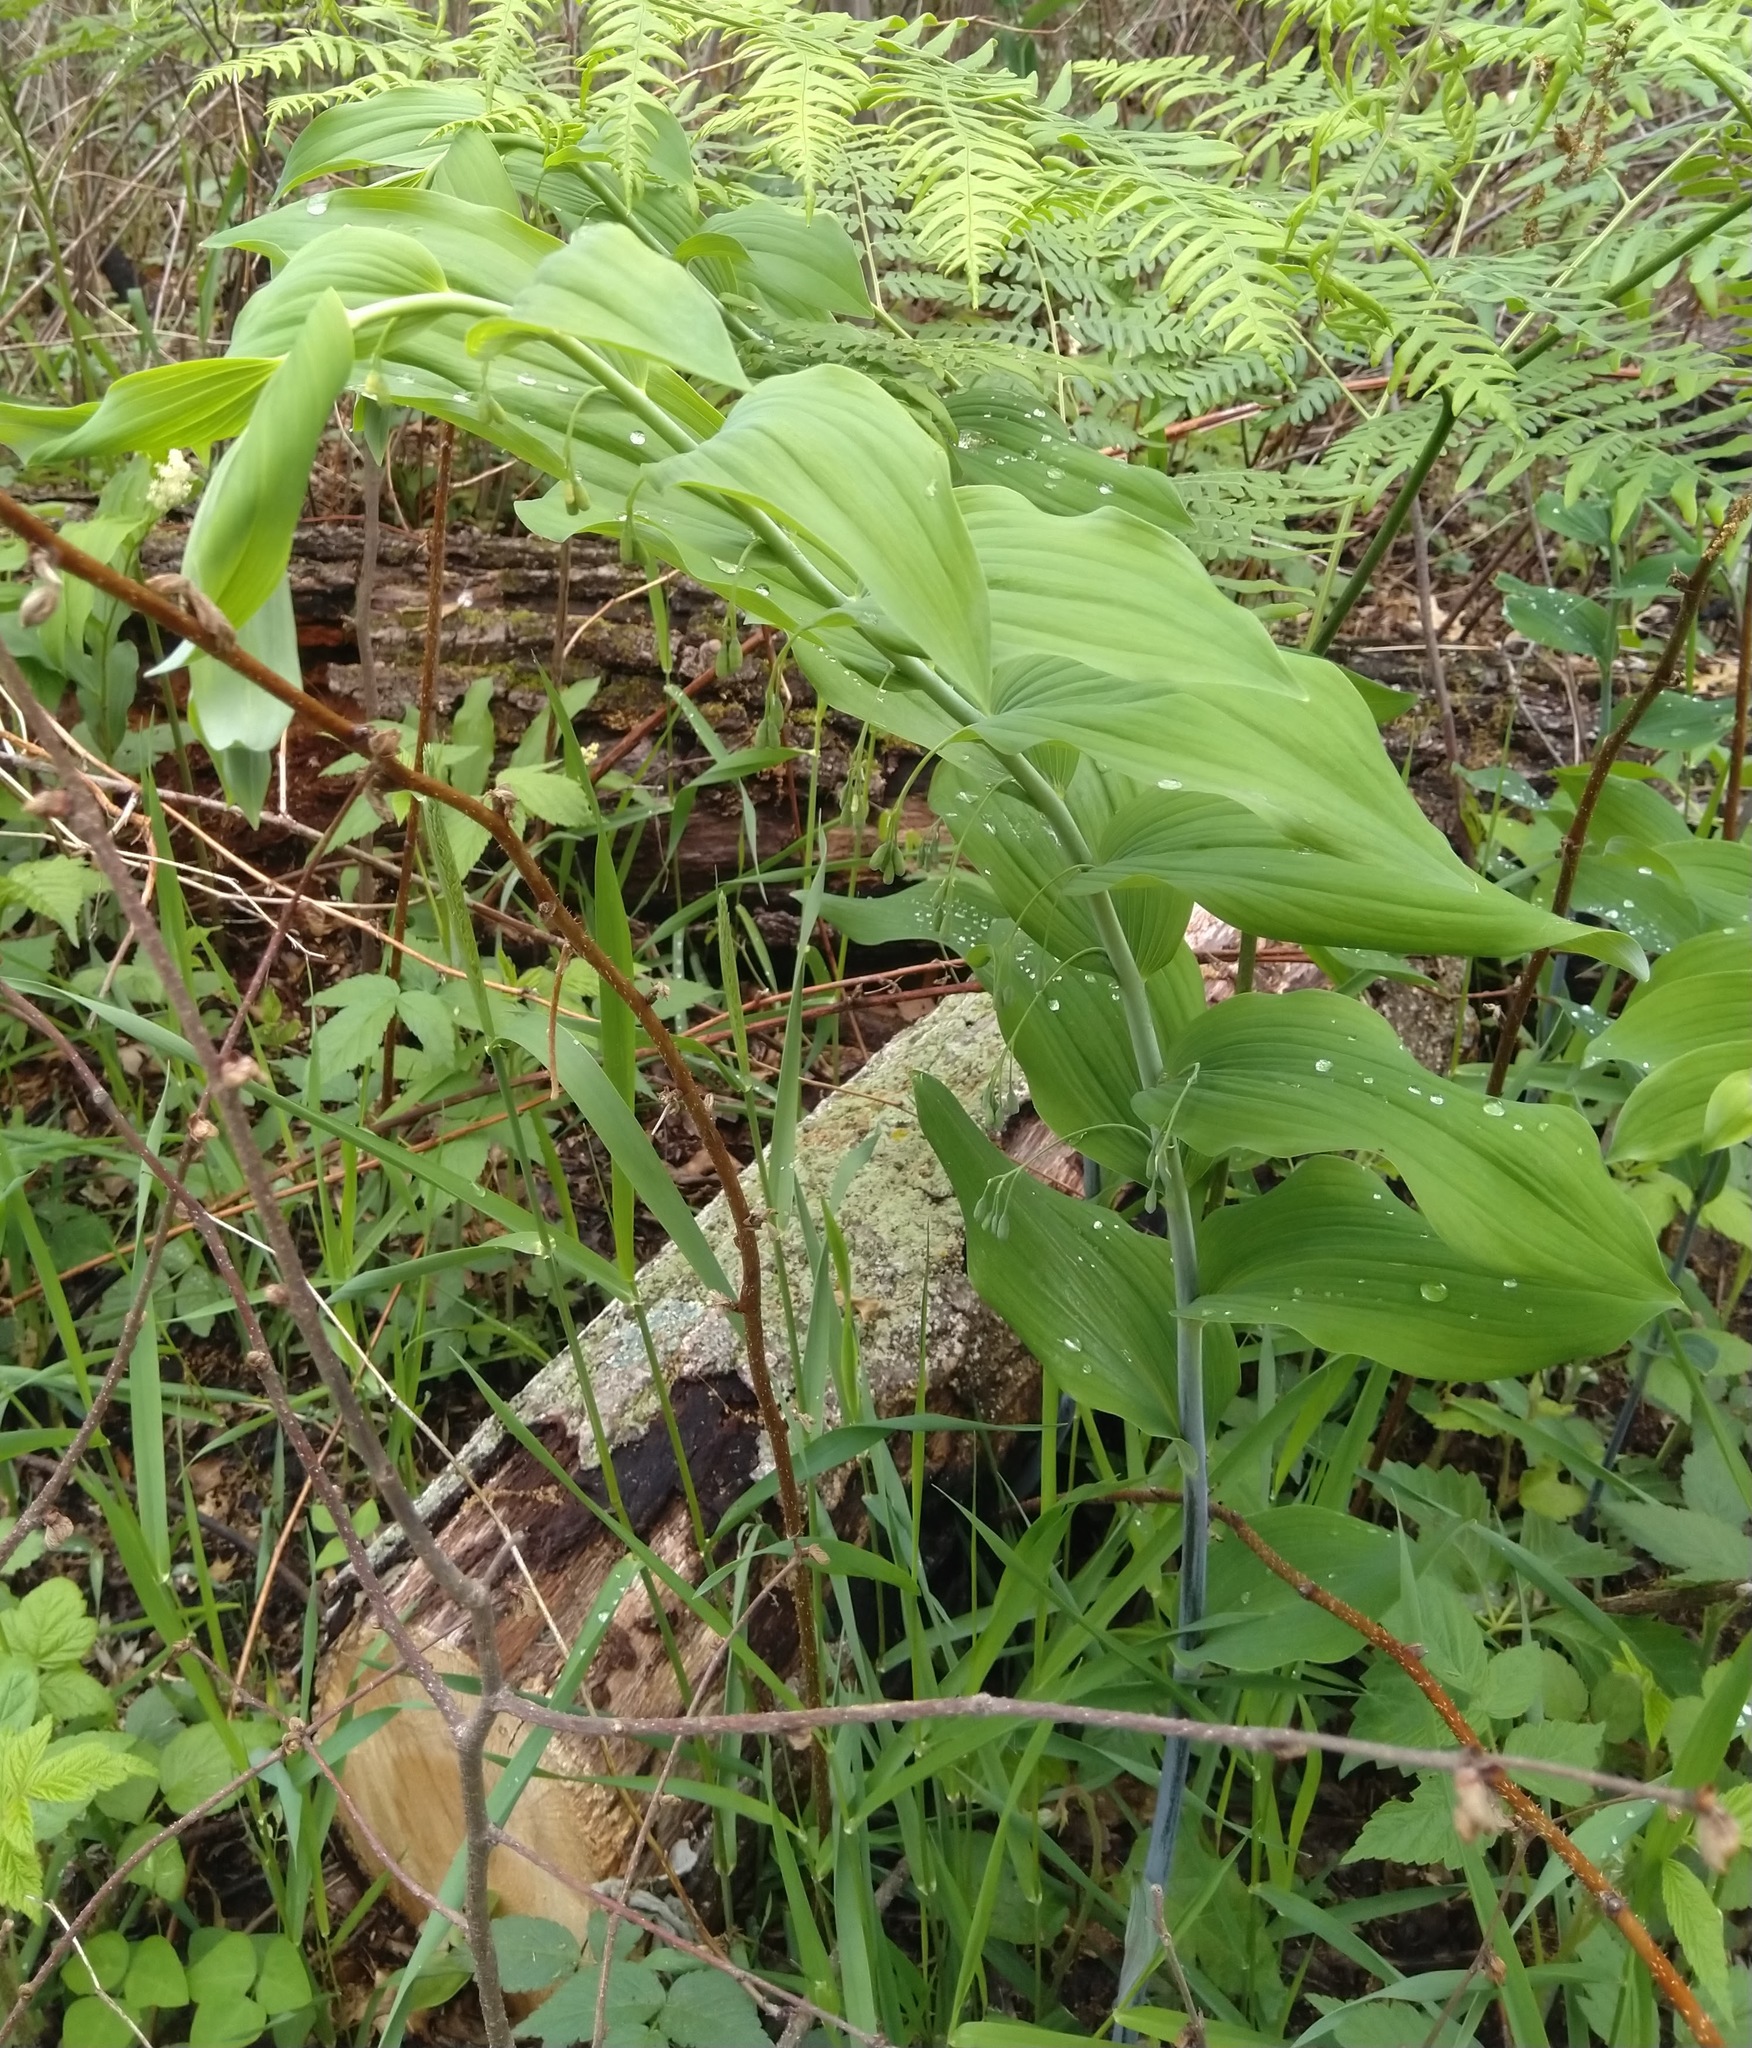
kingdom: Plantae
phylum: Tracheophyta
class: Liliopsida
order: Asparagales
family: Asparagaceae
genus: Polygonatum
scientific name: Polygonatum biflorum
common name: American solomon's-seal
